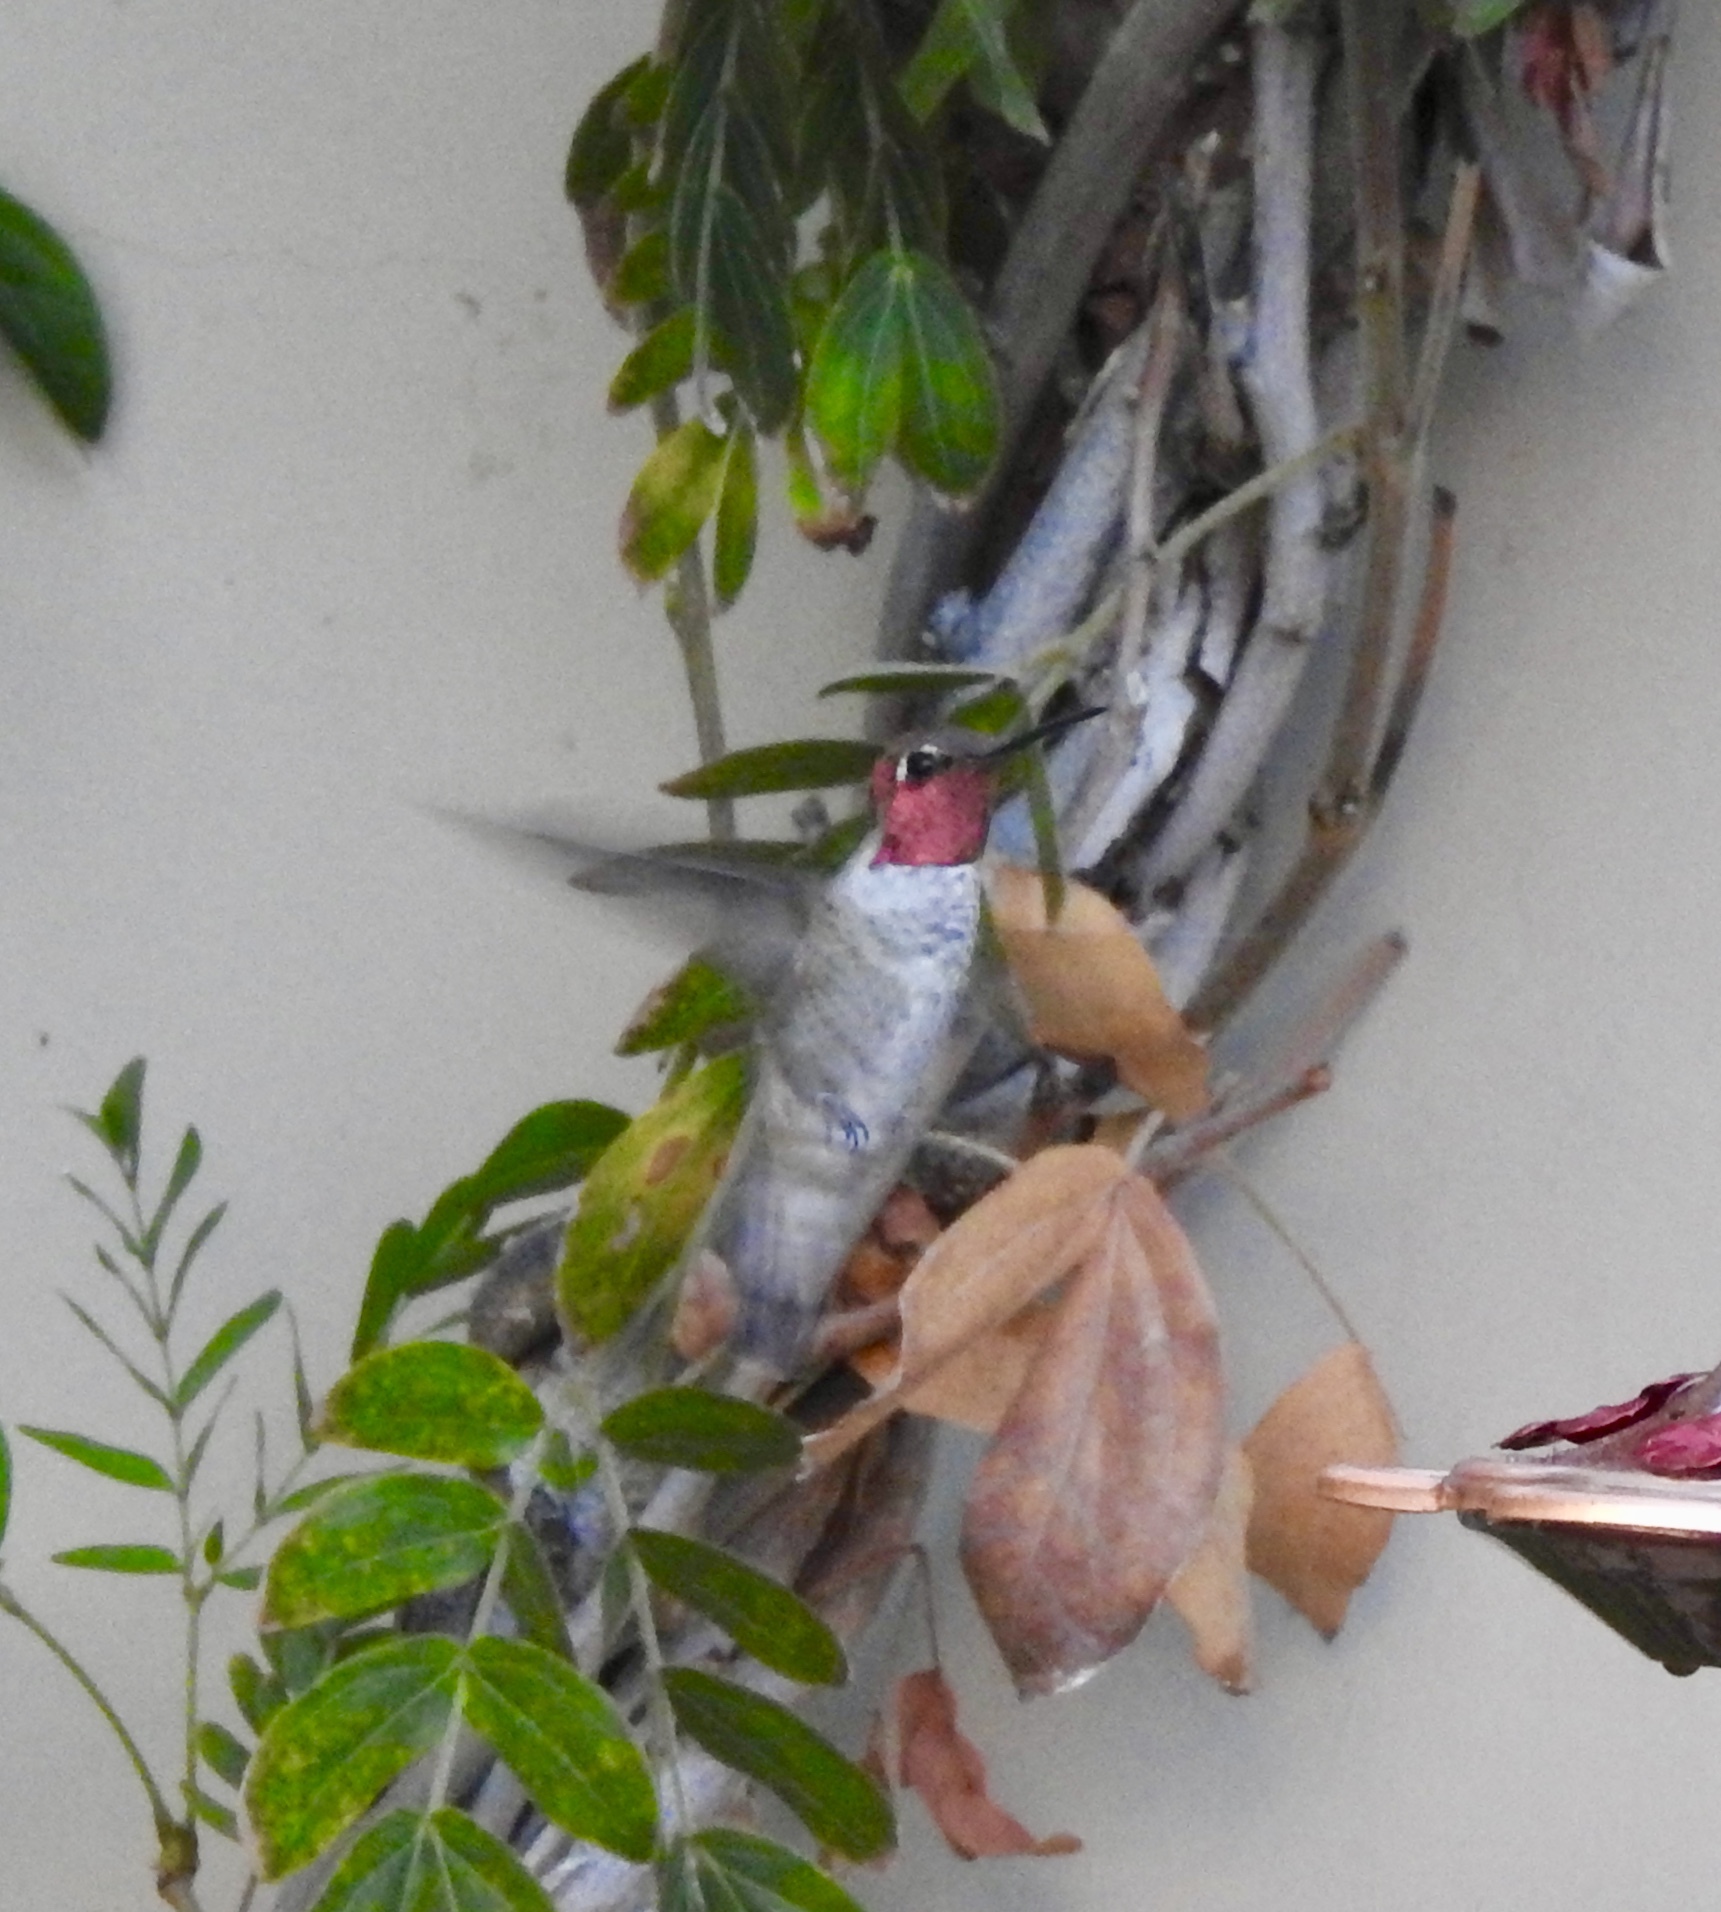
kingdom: Animalia
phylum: Chordata
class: Aves
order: Apodiformes
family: Trochilidae
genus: Calypte
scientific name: Calypte anna
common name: Anna's hummingbird
